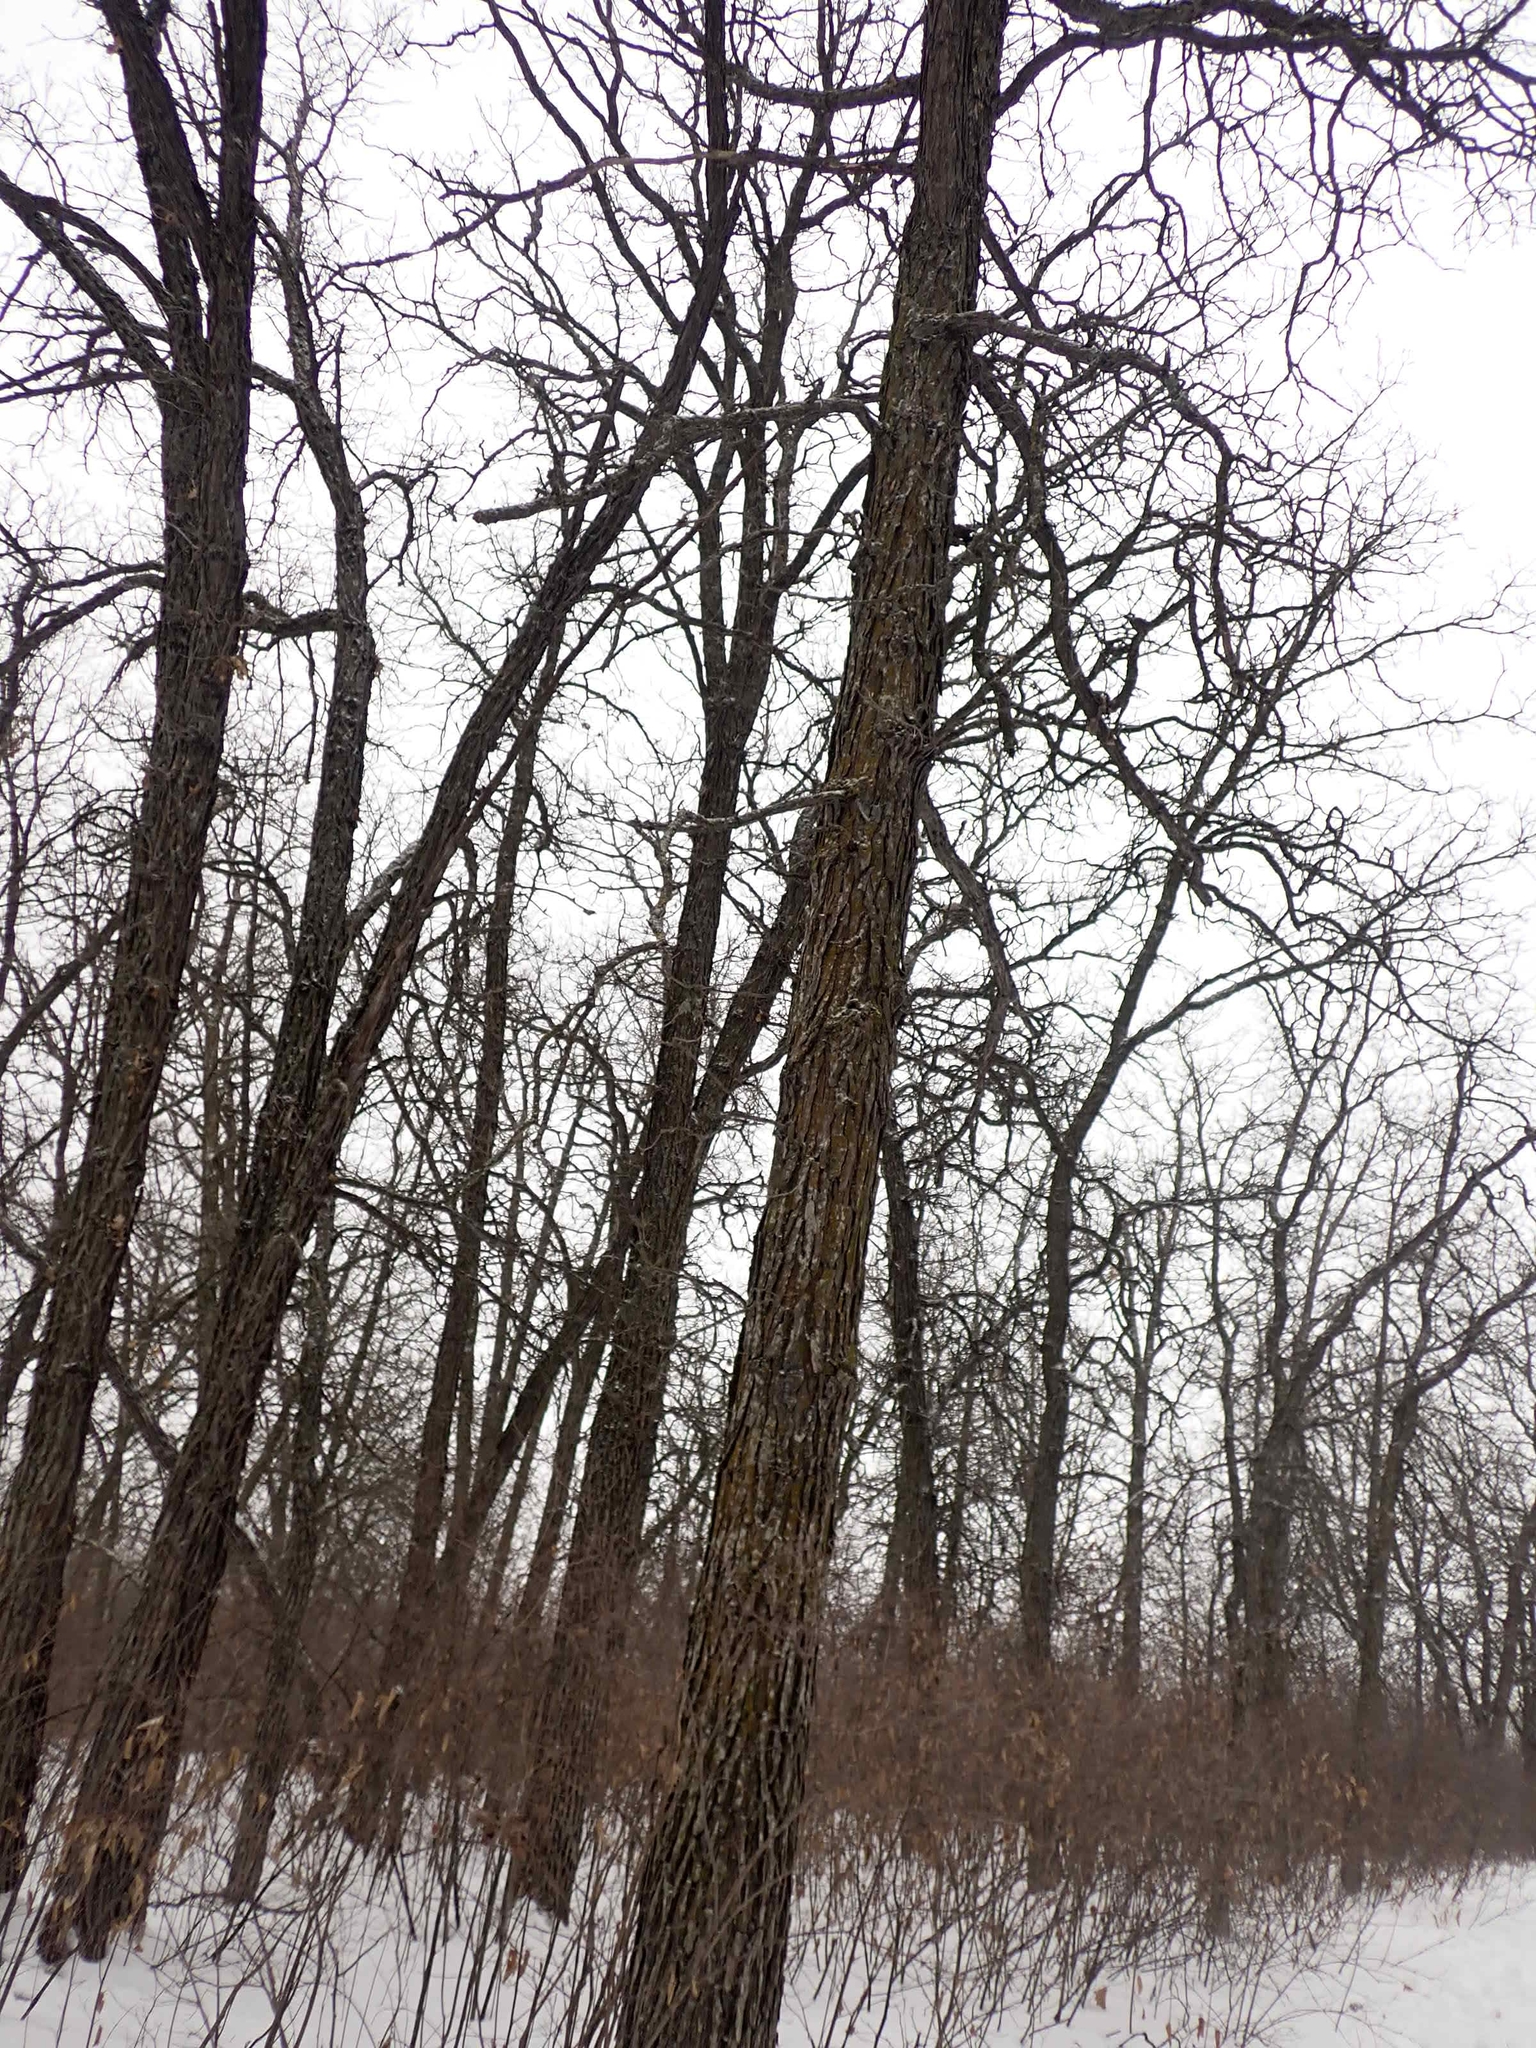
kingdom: Plantae
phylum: Tracheophyta
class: Magnoliopsida
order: Fagales
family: Fagaceae
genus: Quercus
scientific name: Quercus macrocarpa
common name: Bur oak
